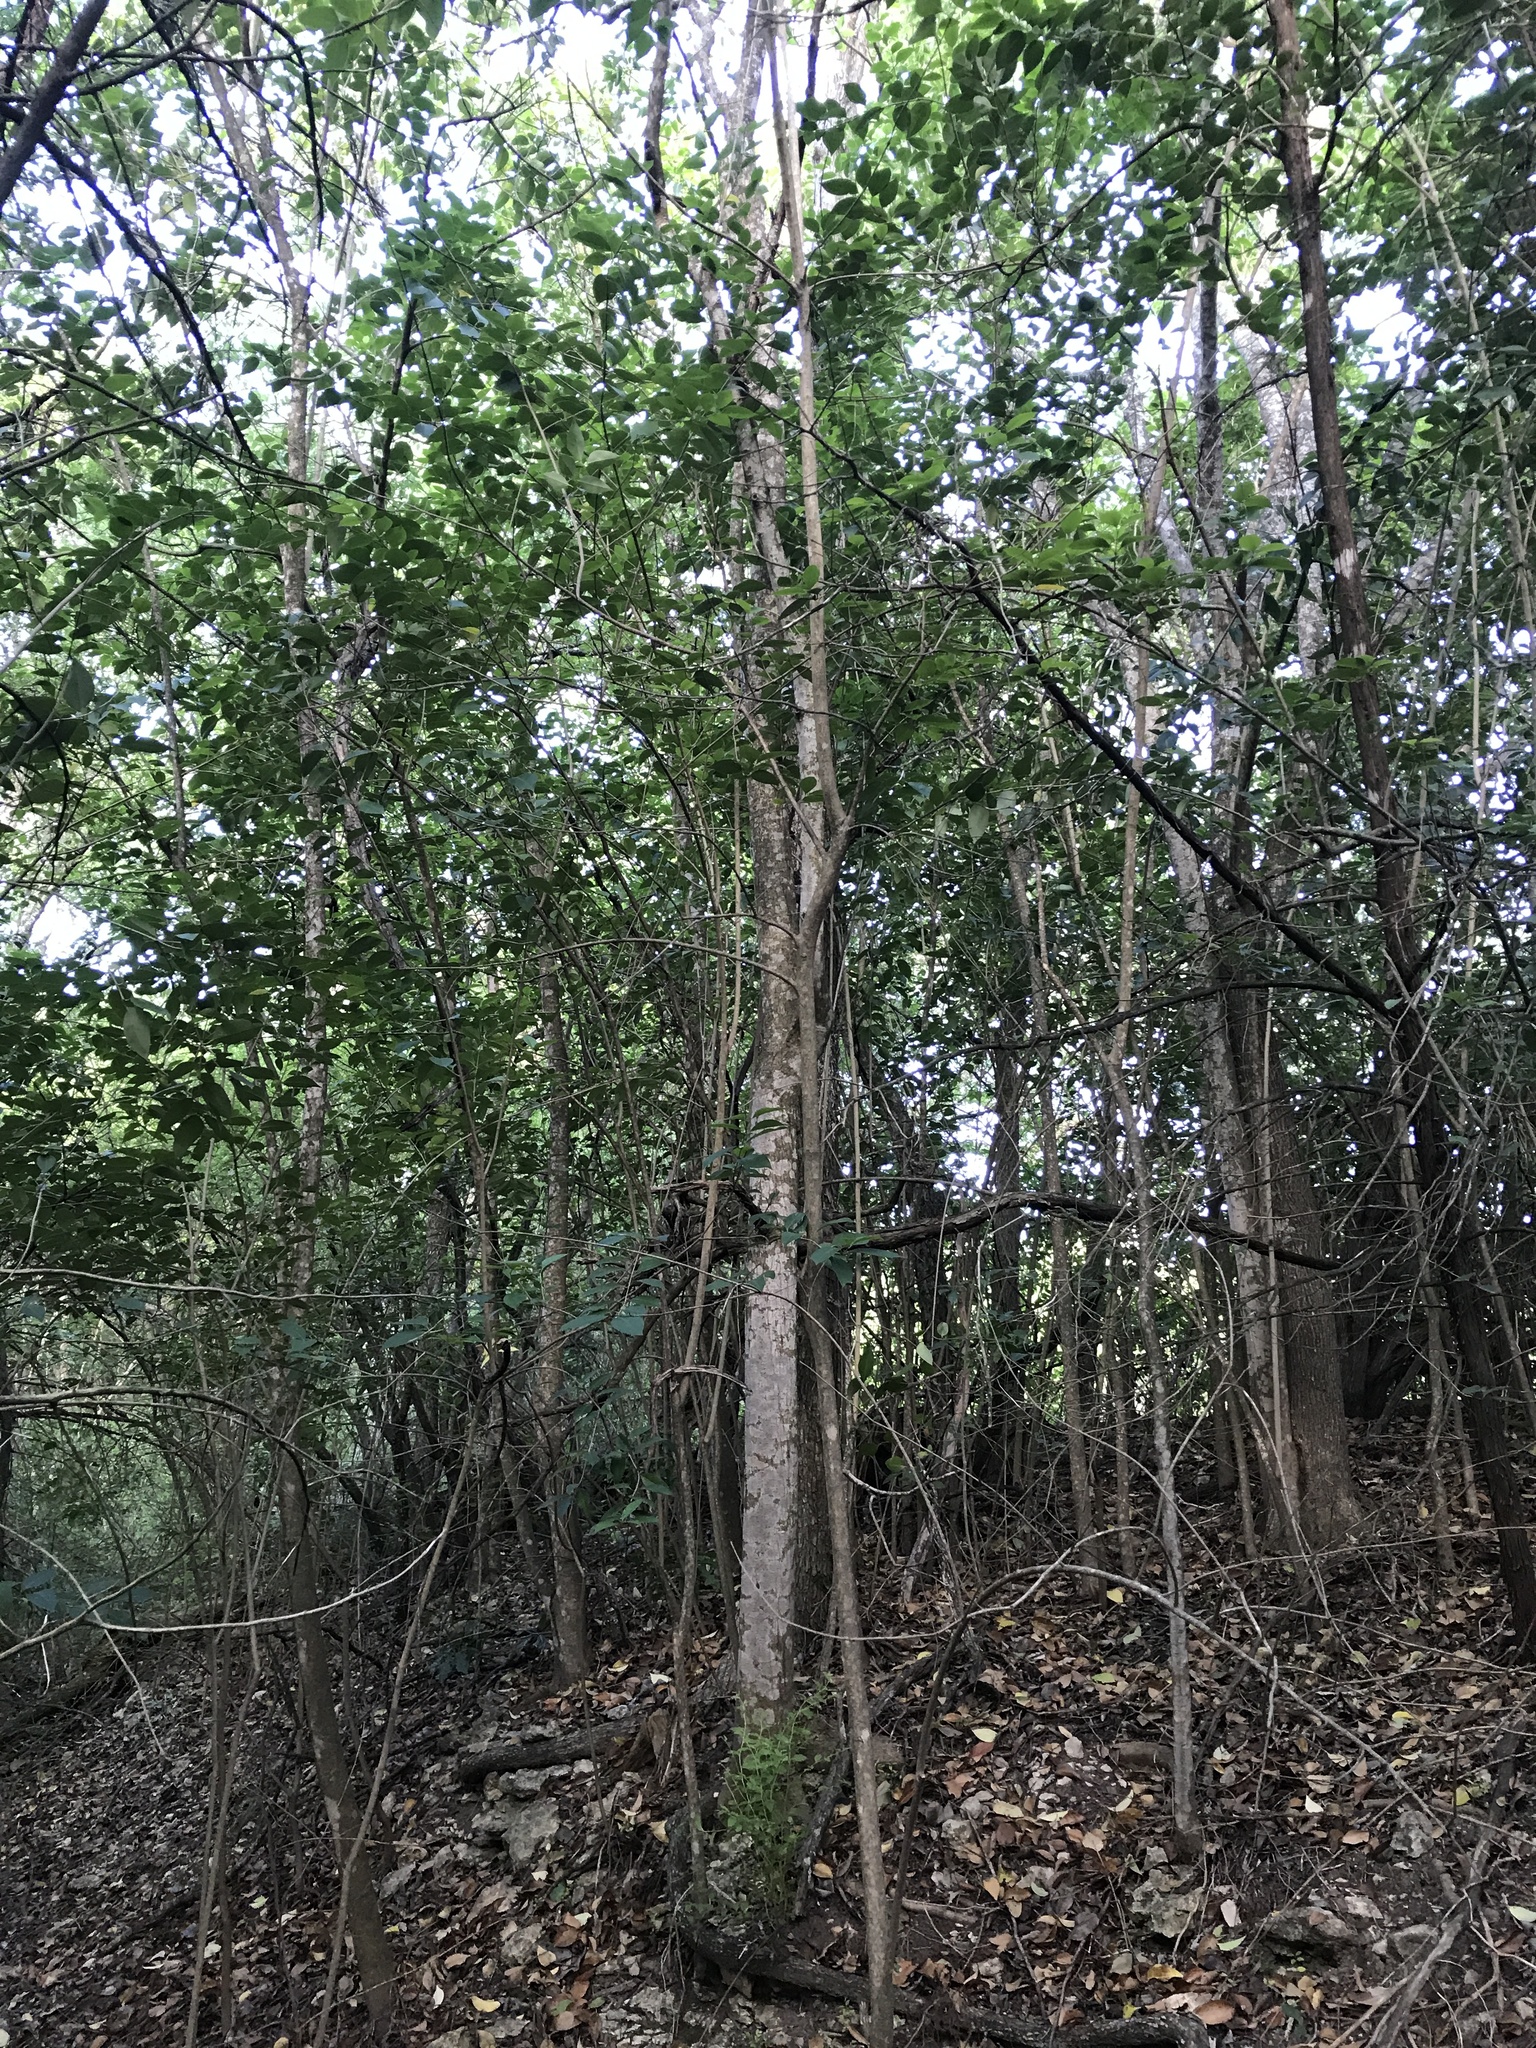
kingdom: Plantae
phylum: Tracheophyta
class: Magnoliopsida
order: Lamiales
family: Oleaceae
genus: Ligustrum
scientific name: Ligustrum lucidum
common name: Glossy privet
